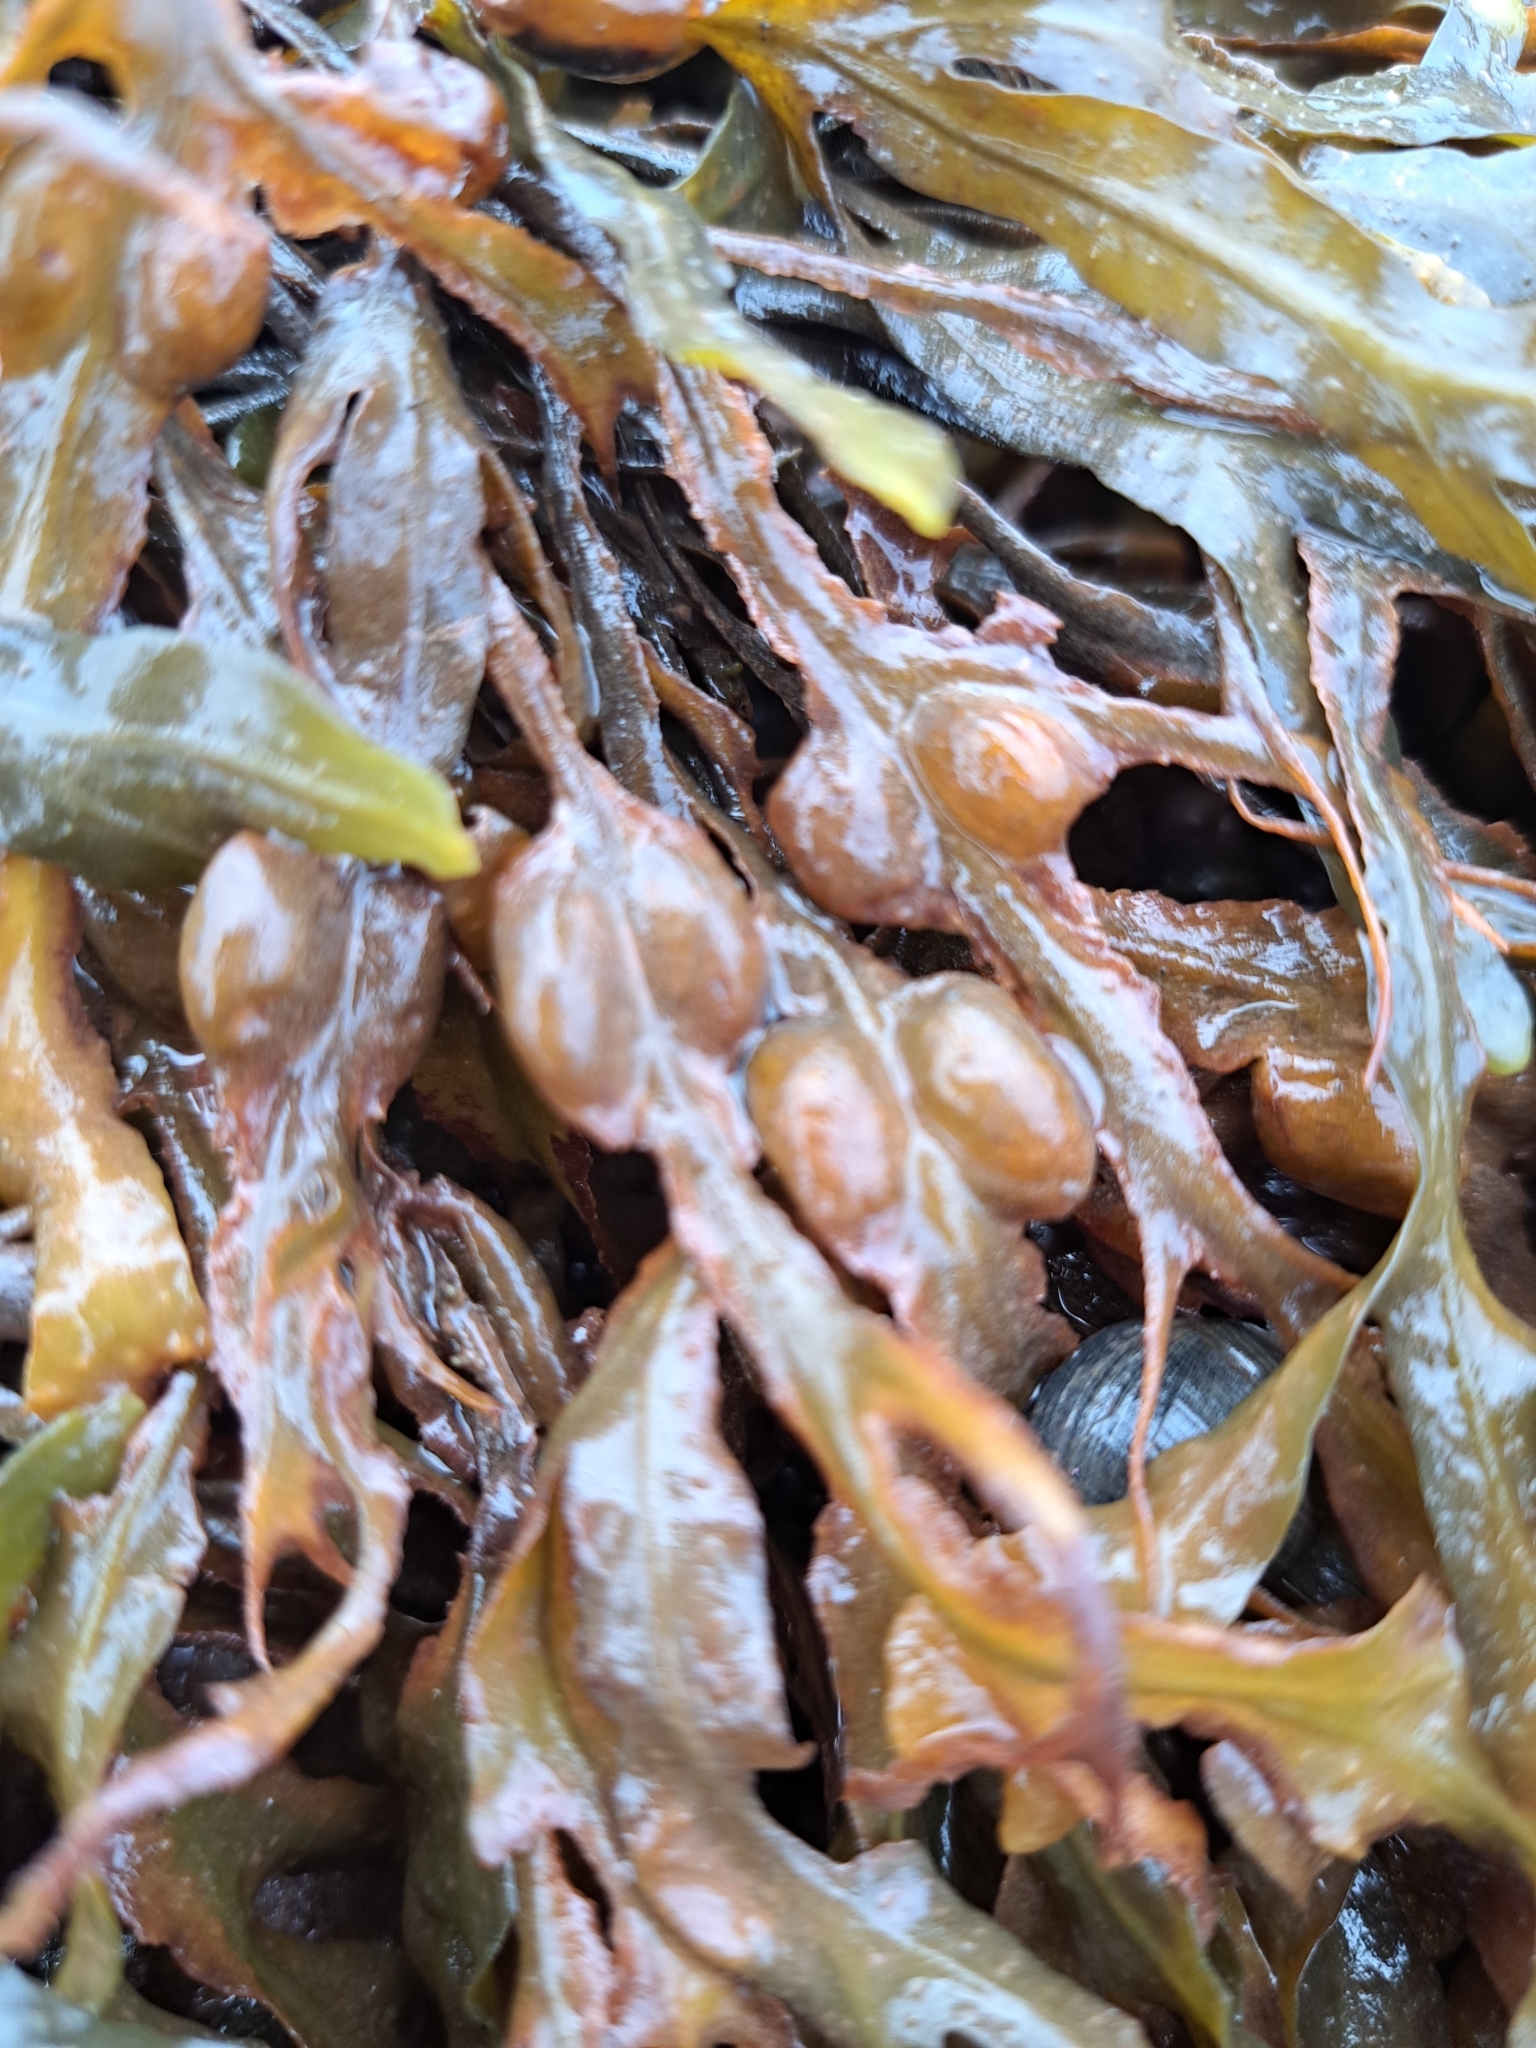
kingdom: Chromista
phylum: Ochrophyta
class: Phaeophyceae
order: Fucales
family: Fucaceae
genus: Fucus
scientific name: Fucus vesiculosus
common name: Bladder wrack
